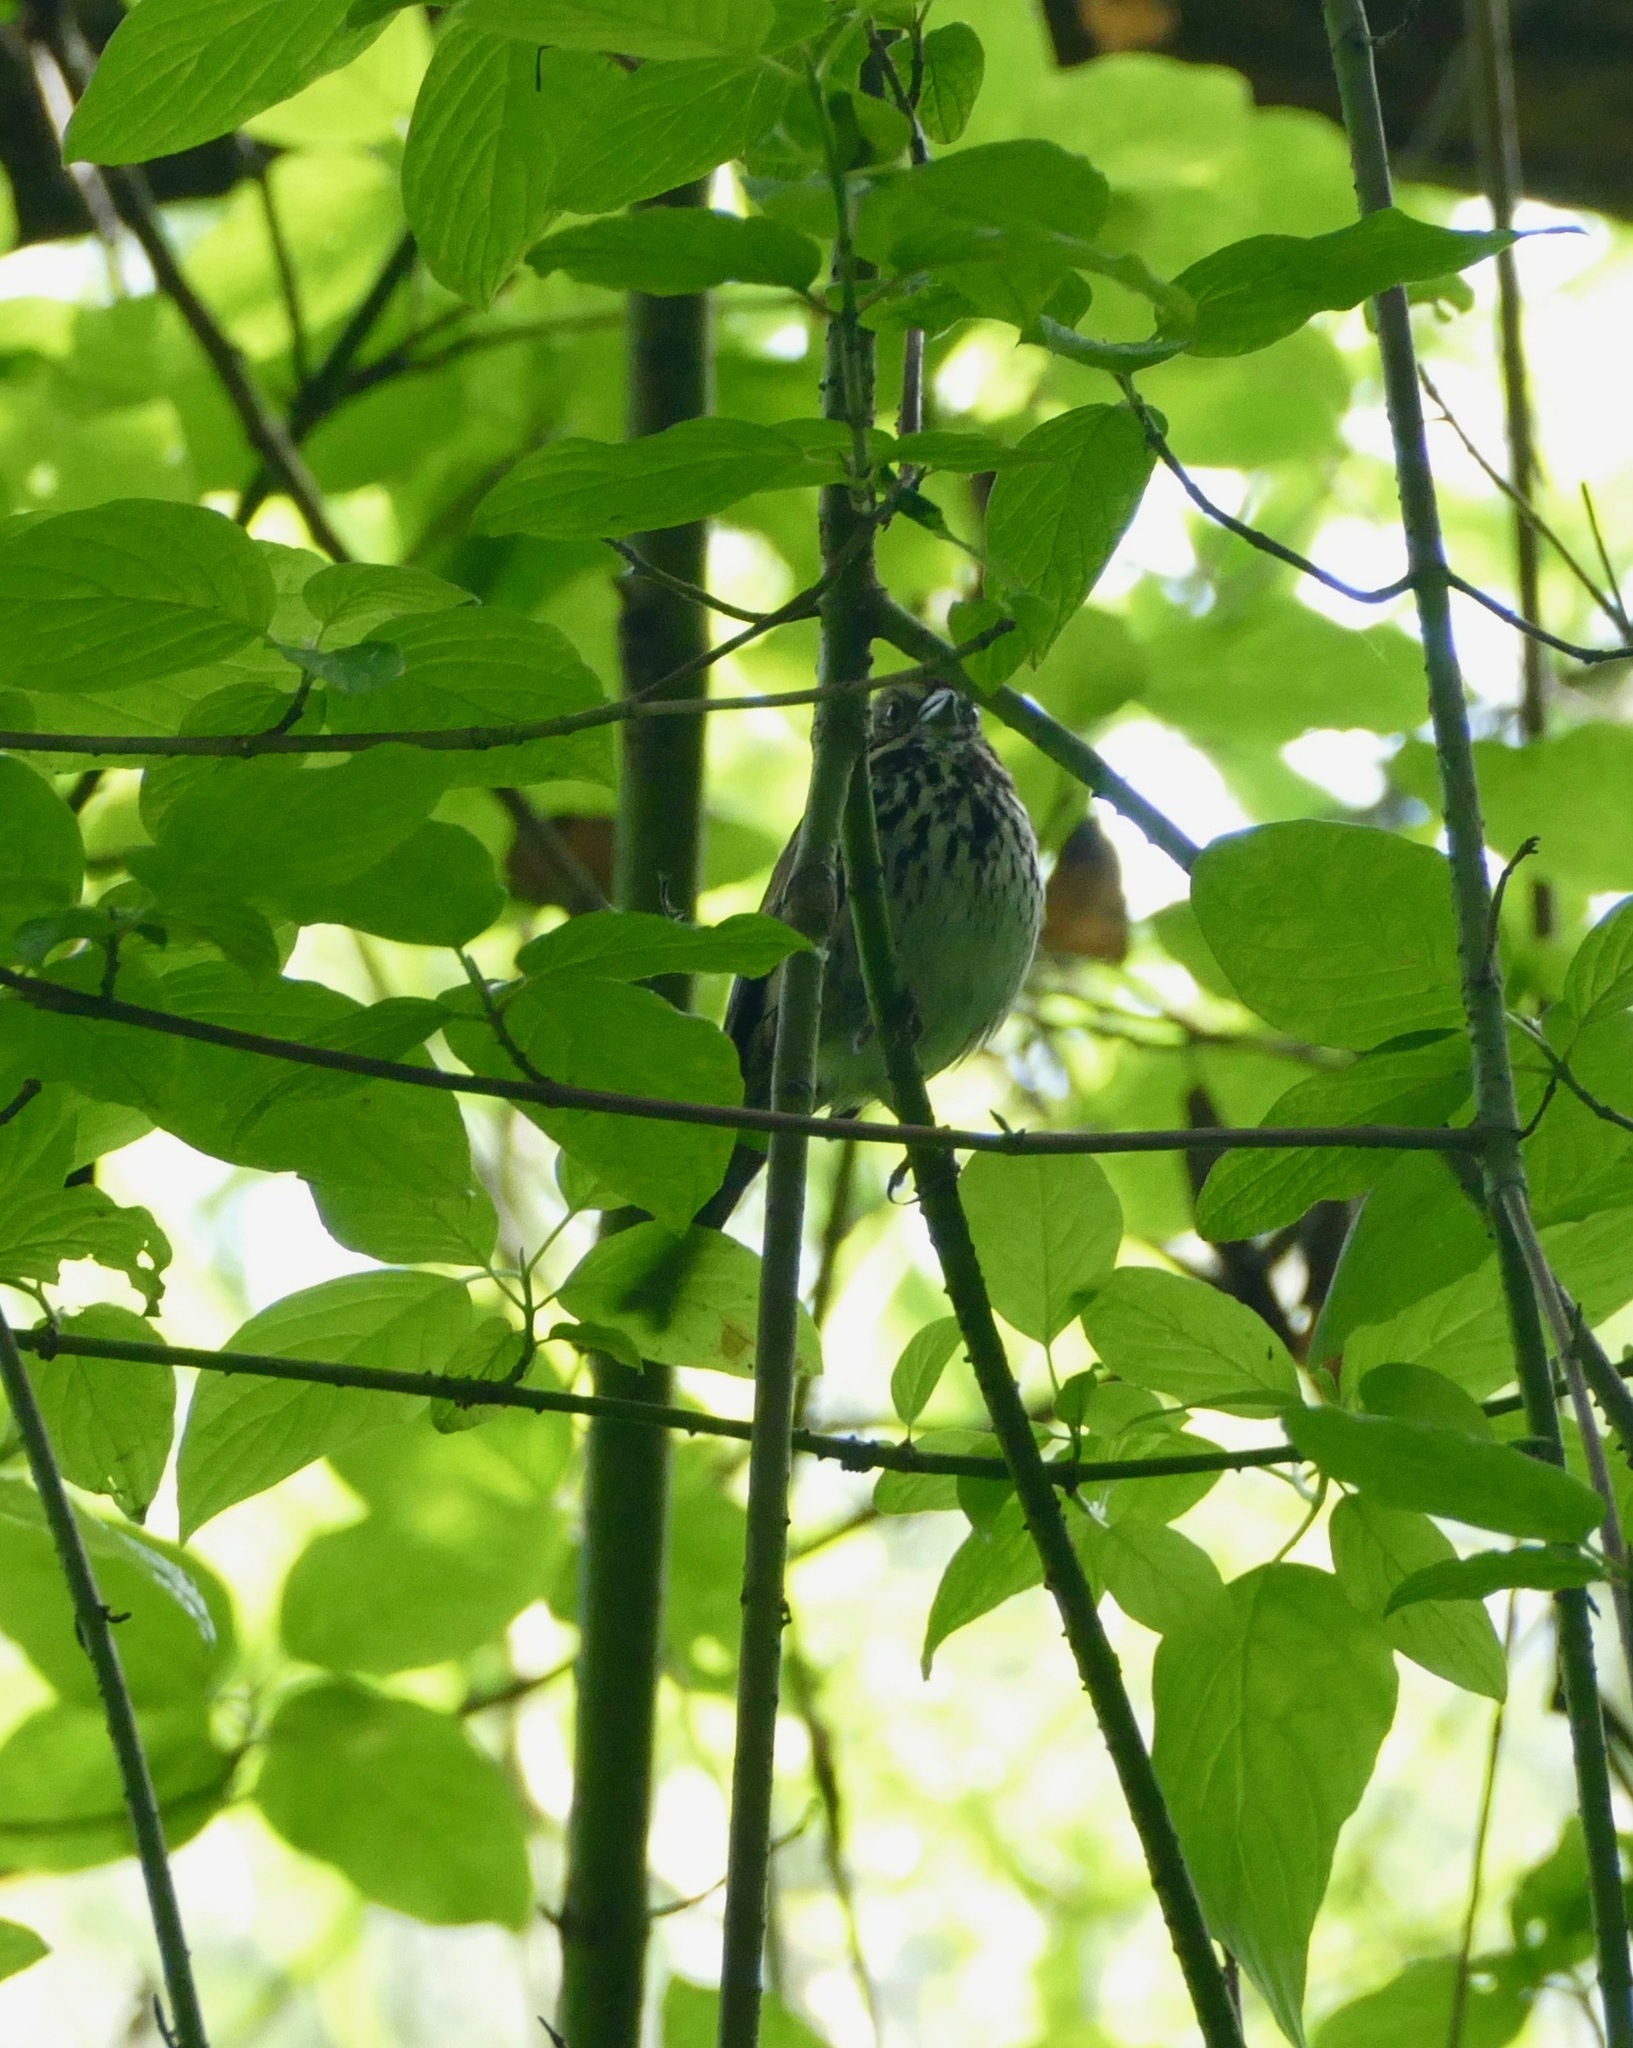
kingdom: Animalia
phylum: Chordata
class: Aves
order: Passeriformes
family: Passerellidae
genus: Melospiza
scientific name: Melospiza melodia
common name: Song sparrow
